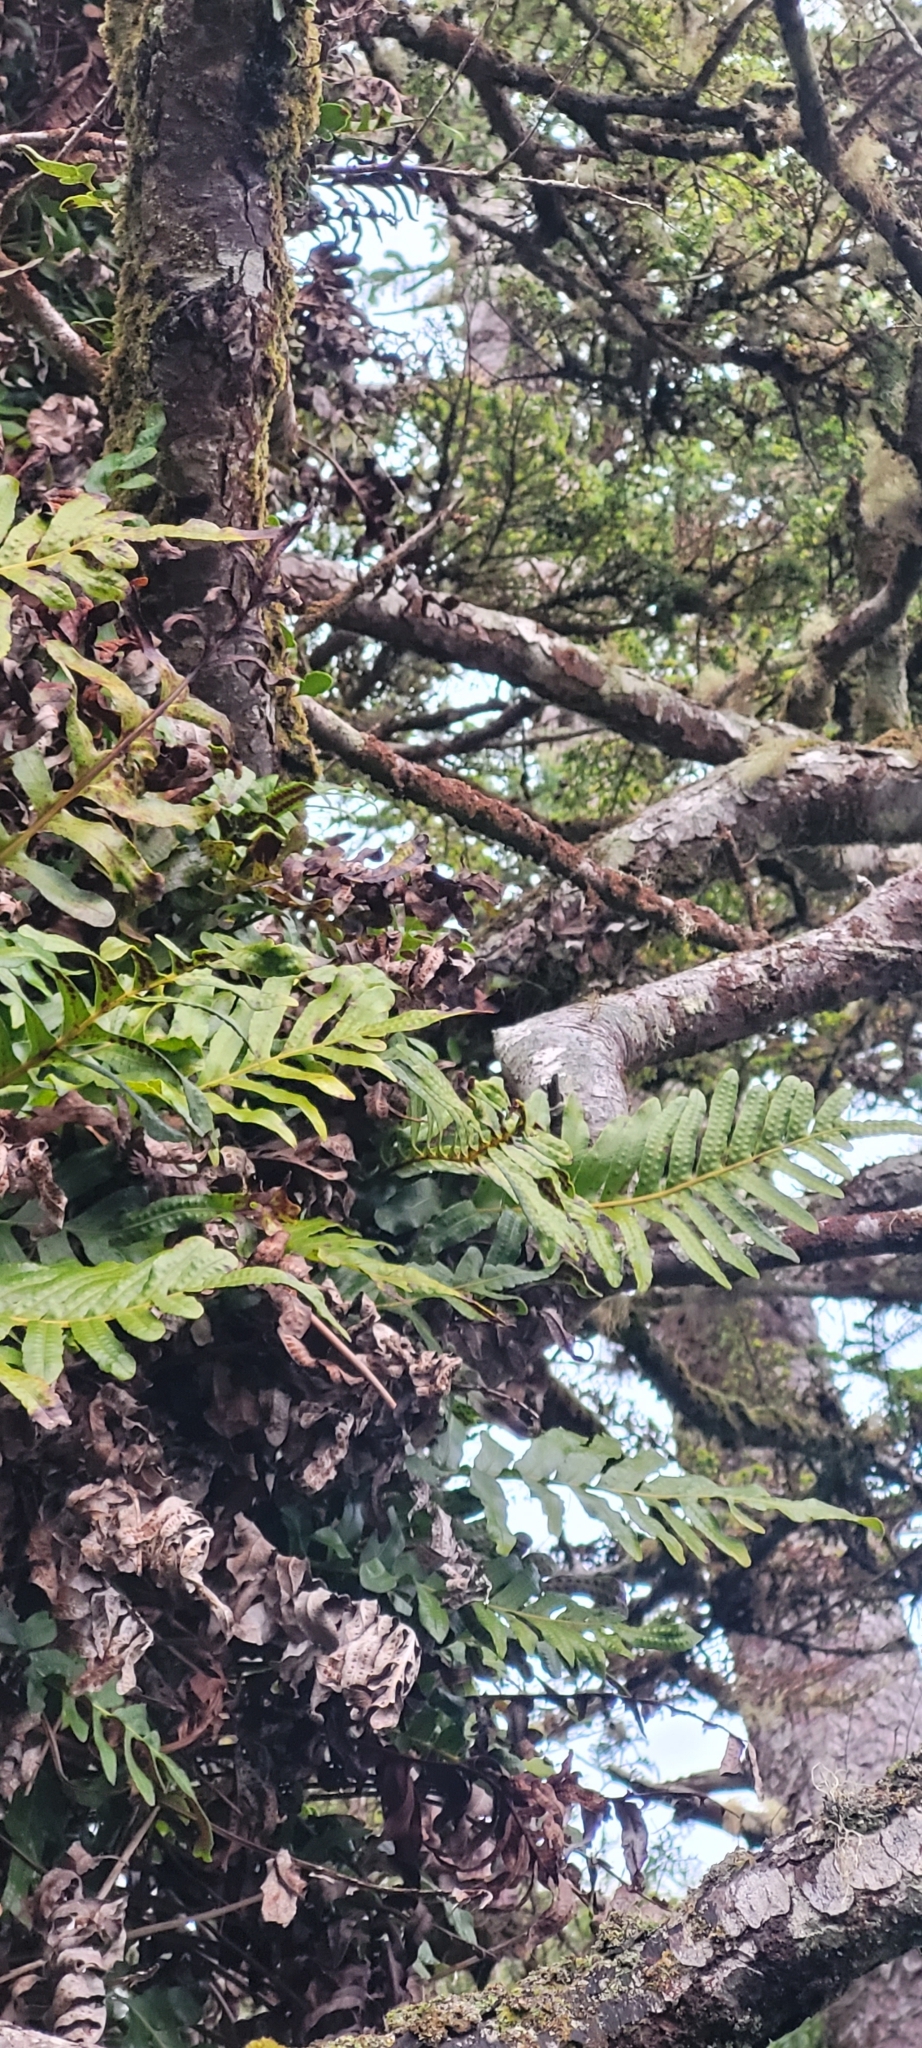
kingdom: Plantae
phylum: Tracheophyta
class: Polypodiopsida
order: Polypodiales
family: Polypodiaceae
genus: Polypodium
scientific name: Polypodium scouleri
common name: Scouler's polypody
